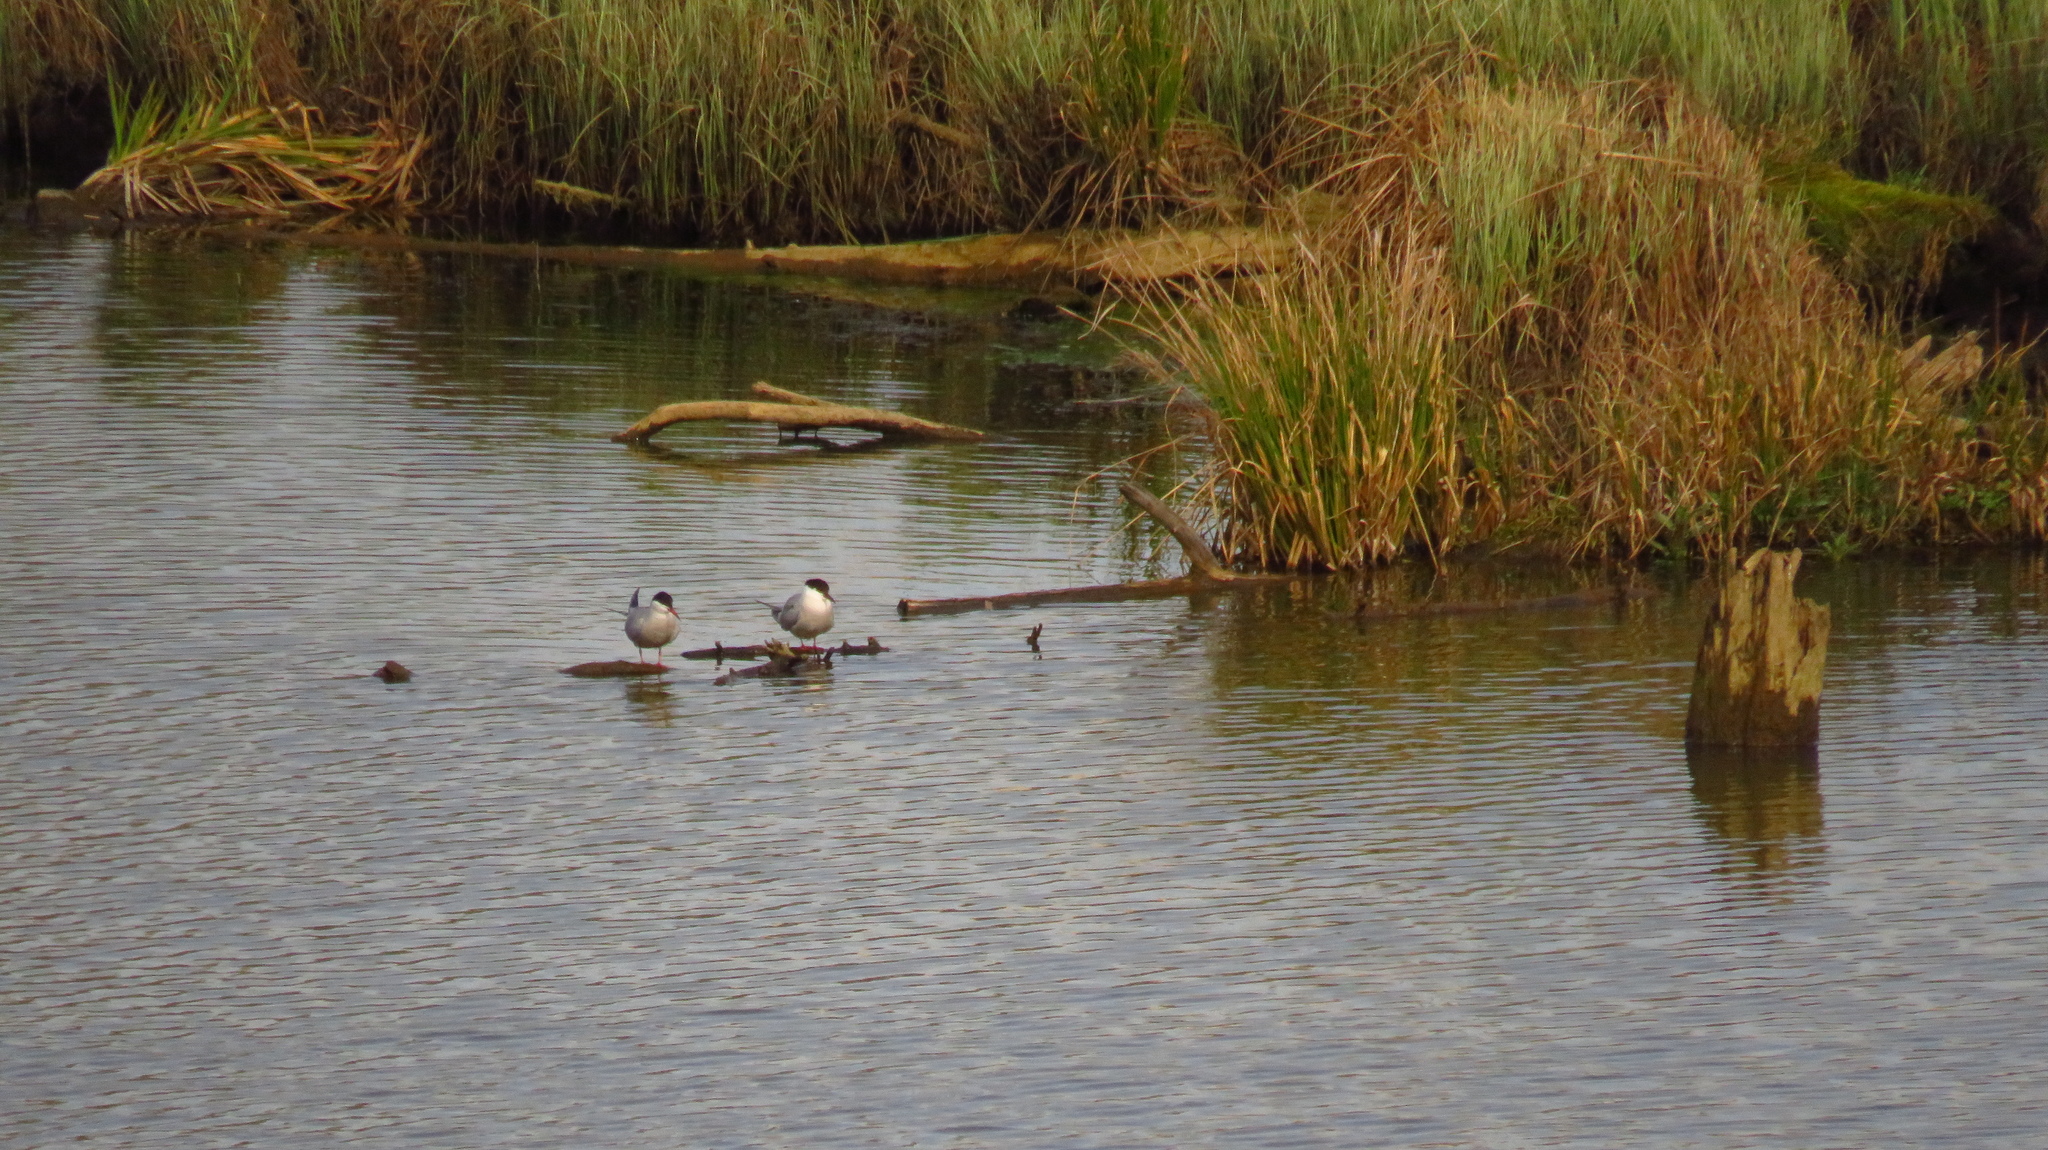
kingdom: Animalia
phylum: Chordata
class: Aves
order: Charadriiformes
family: Laridae
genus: Sterna
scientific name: Sterna hirundo
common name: Common tern
